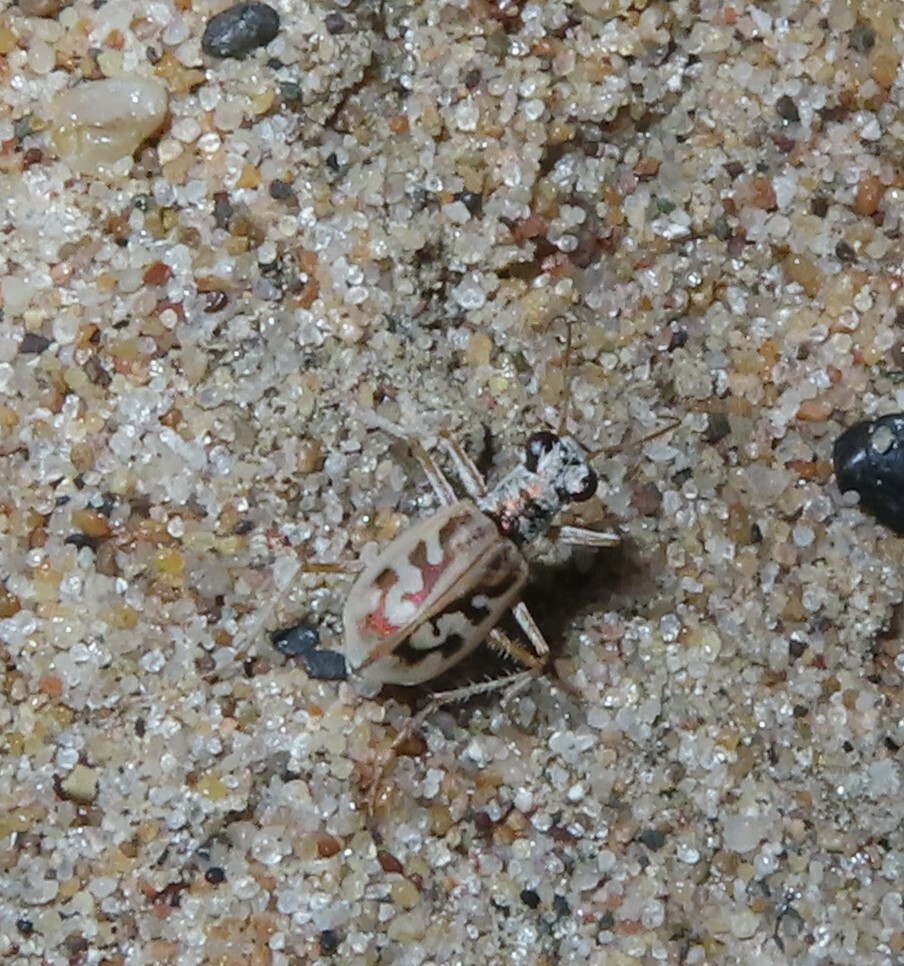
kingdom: Animalia
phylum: Arthropoda
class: Insecta
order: Coleoptera
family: Carabidae
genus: Ellipsoptera
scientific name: Ellipsoptera lepida
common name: Ghost tiger beetle
